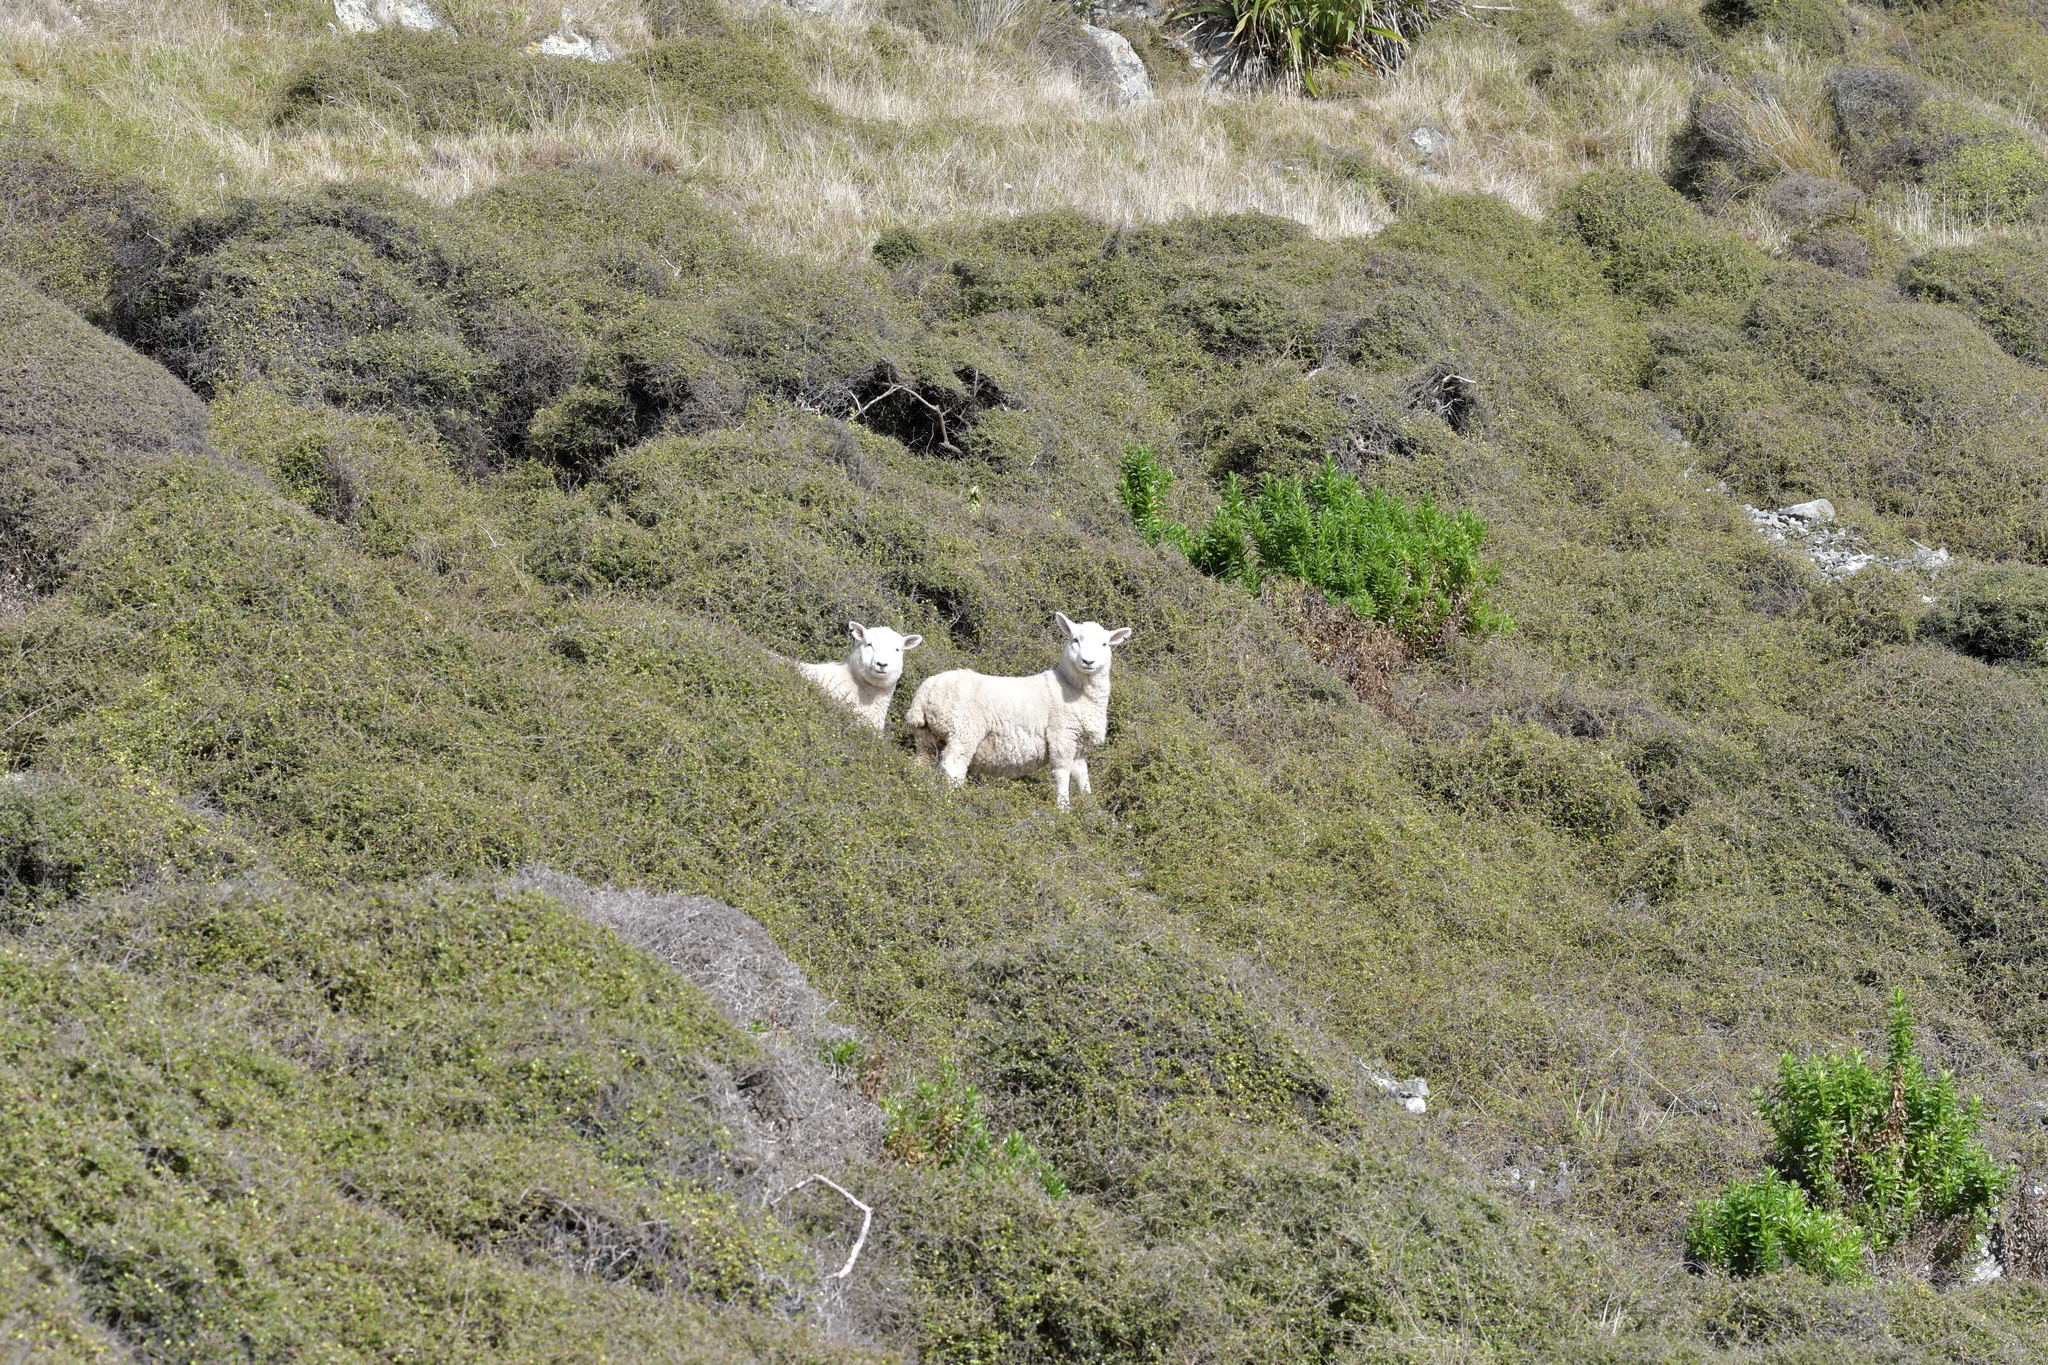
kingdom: Animalia
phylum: Chordata
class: Mammalia
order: Artiodactyla
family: Bovidae
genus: Ovis
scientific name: Ovis aries
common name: Domestic sheep
